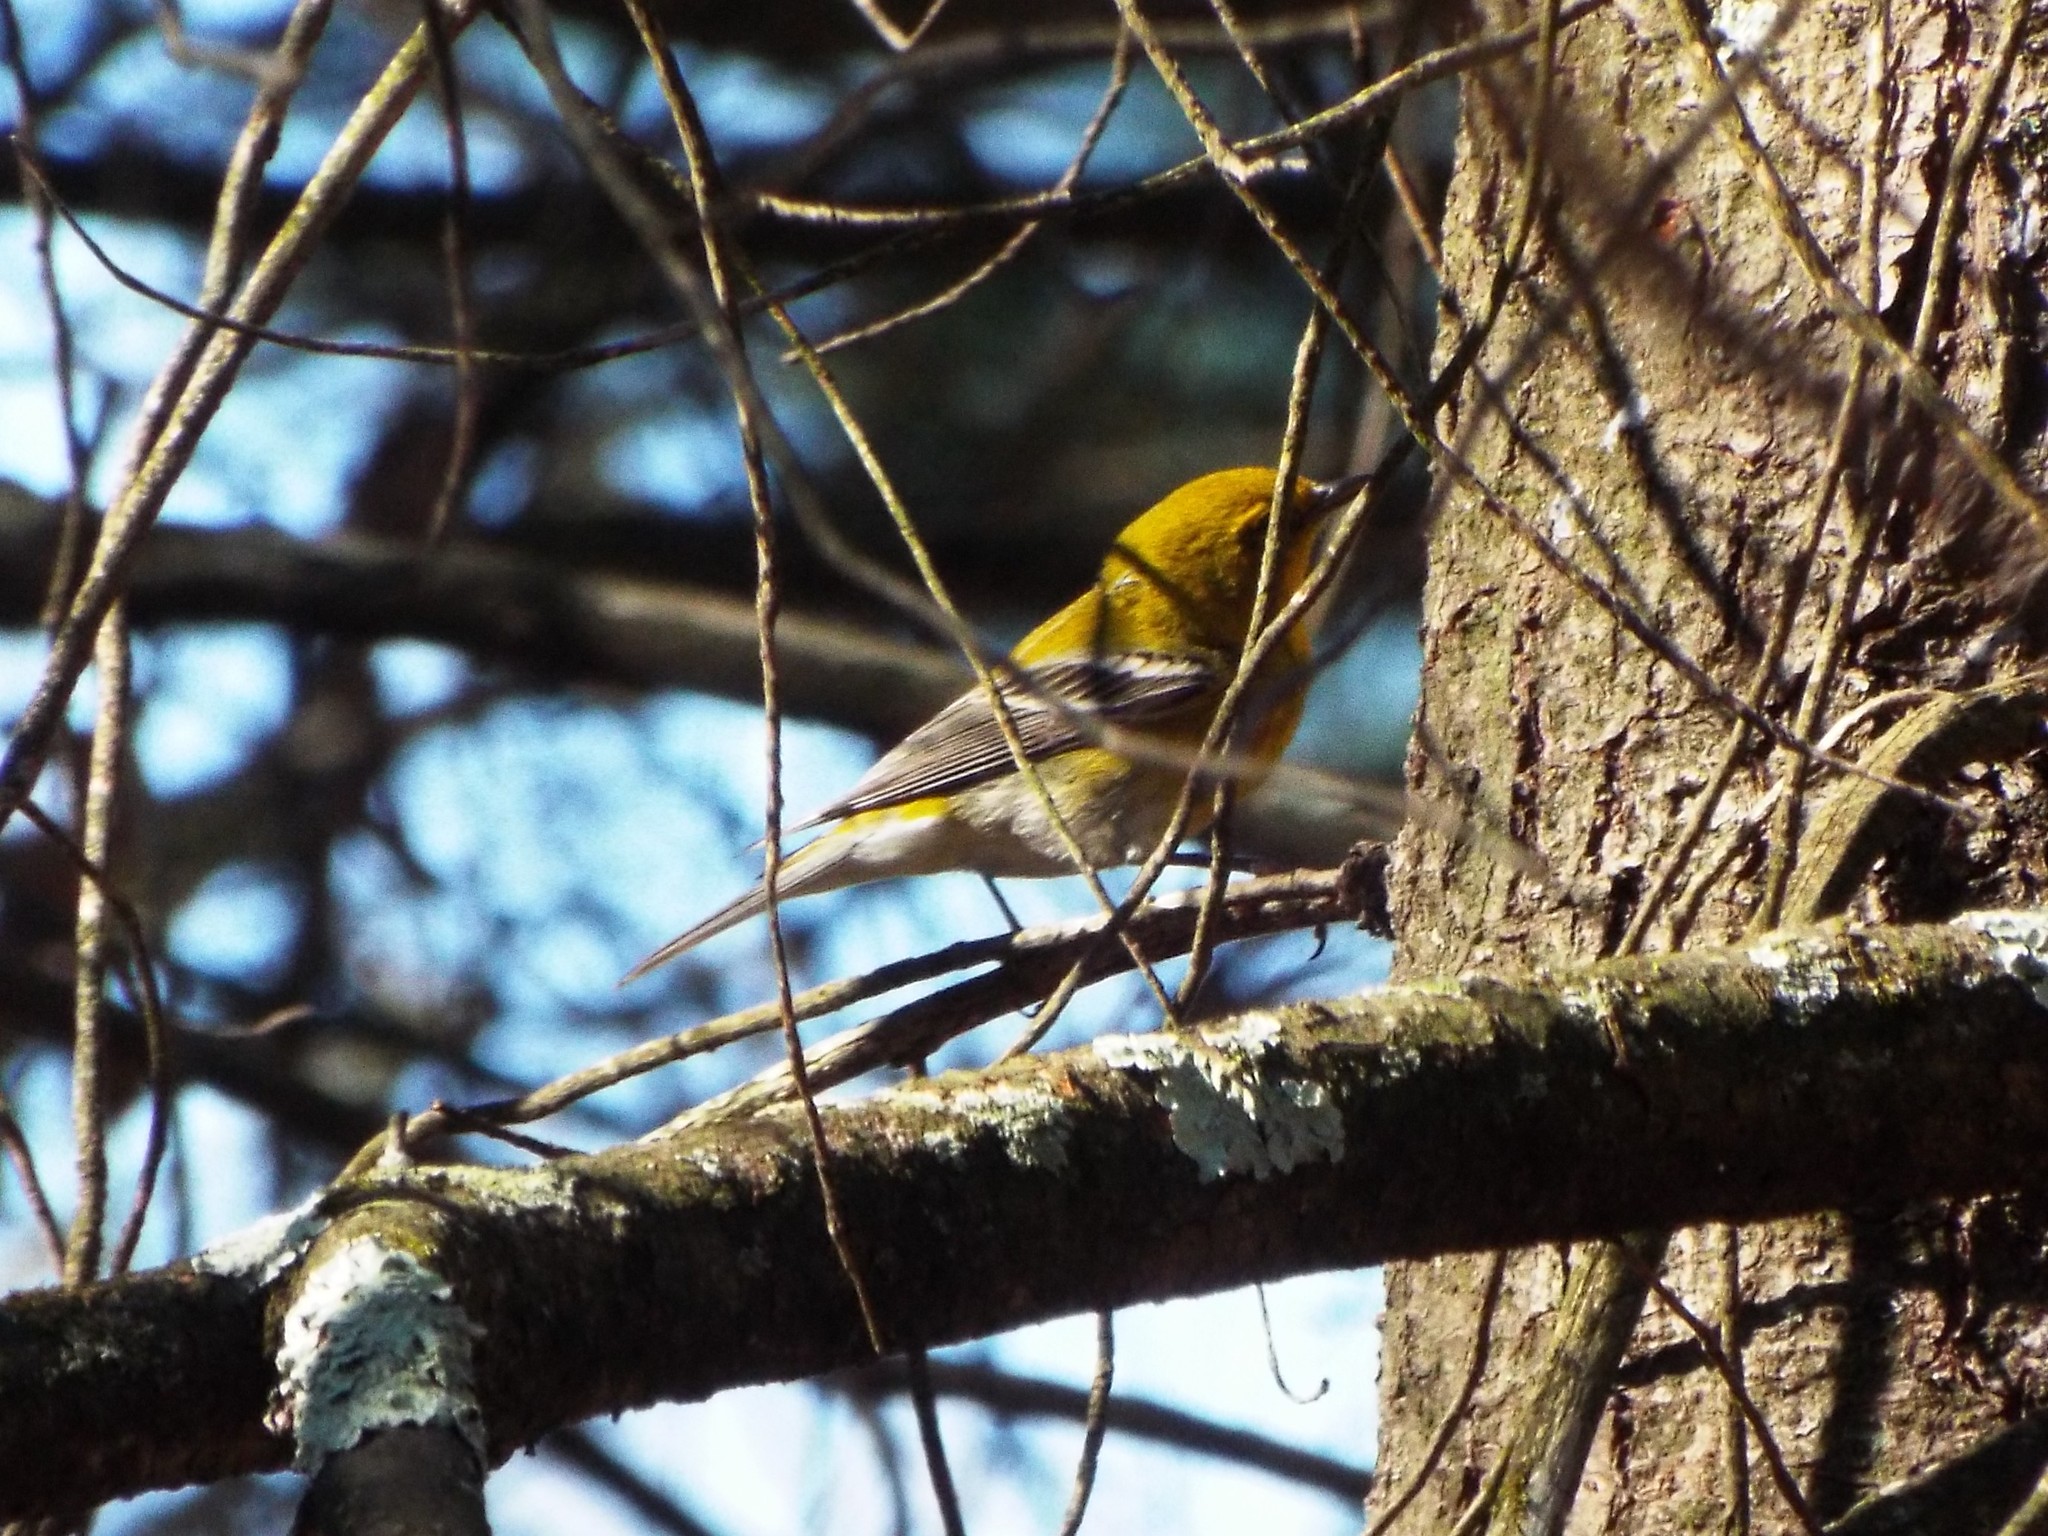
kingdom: Animalia
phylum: Chordata
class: Aves
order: Passeriformes
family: Parulidae
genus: Setophaga
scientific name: Setophaga pinus
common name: Pine warbler
